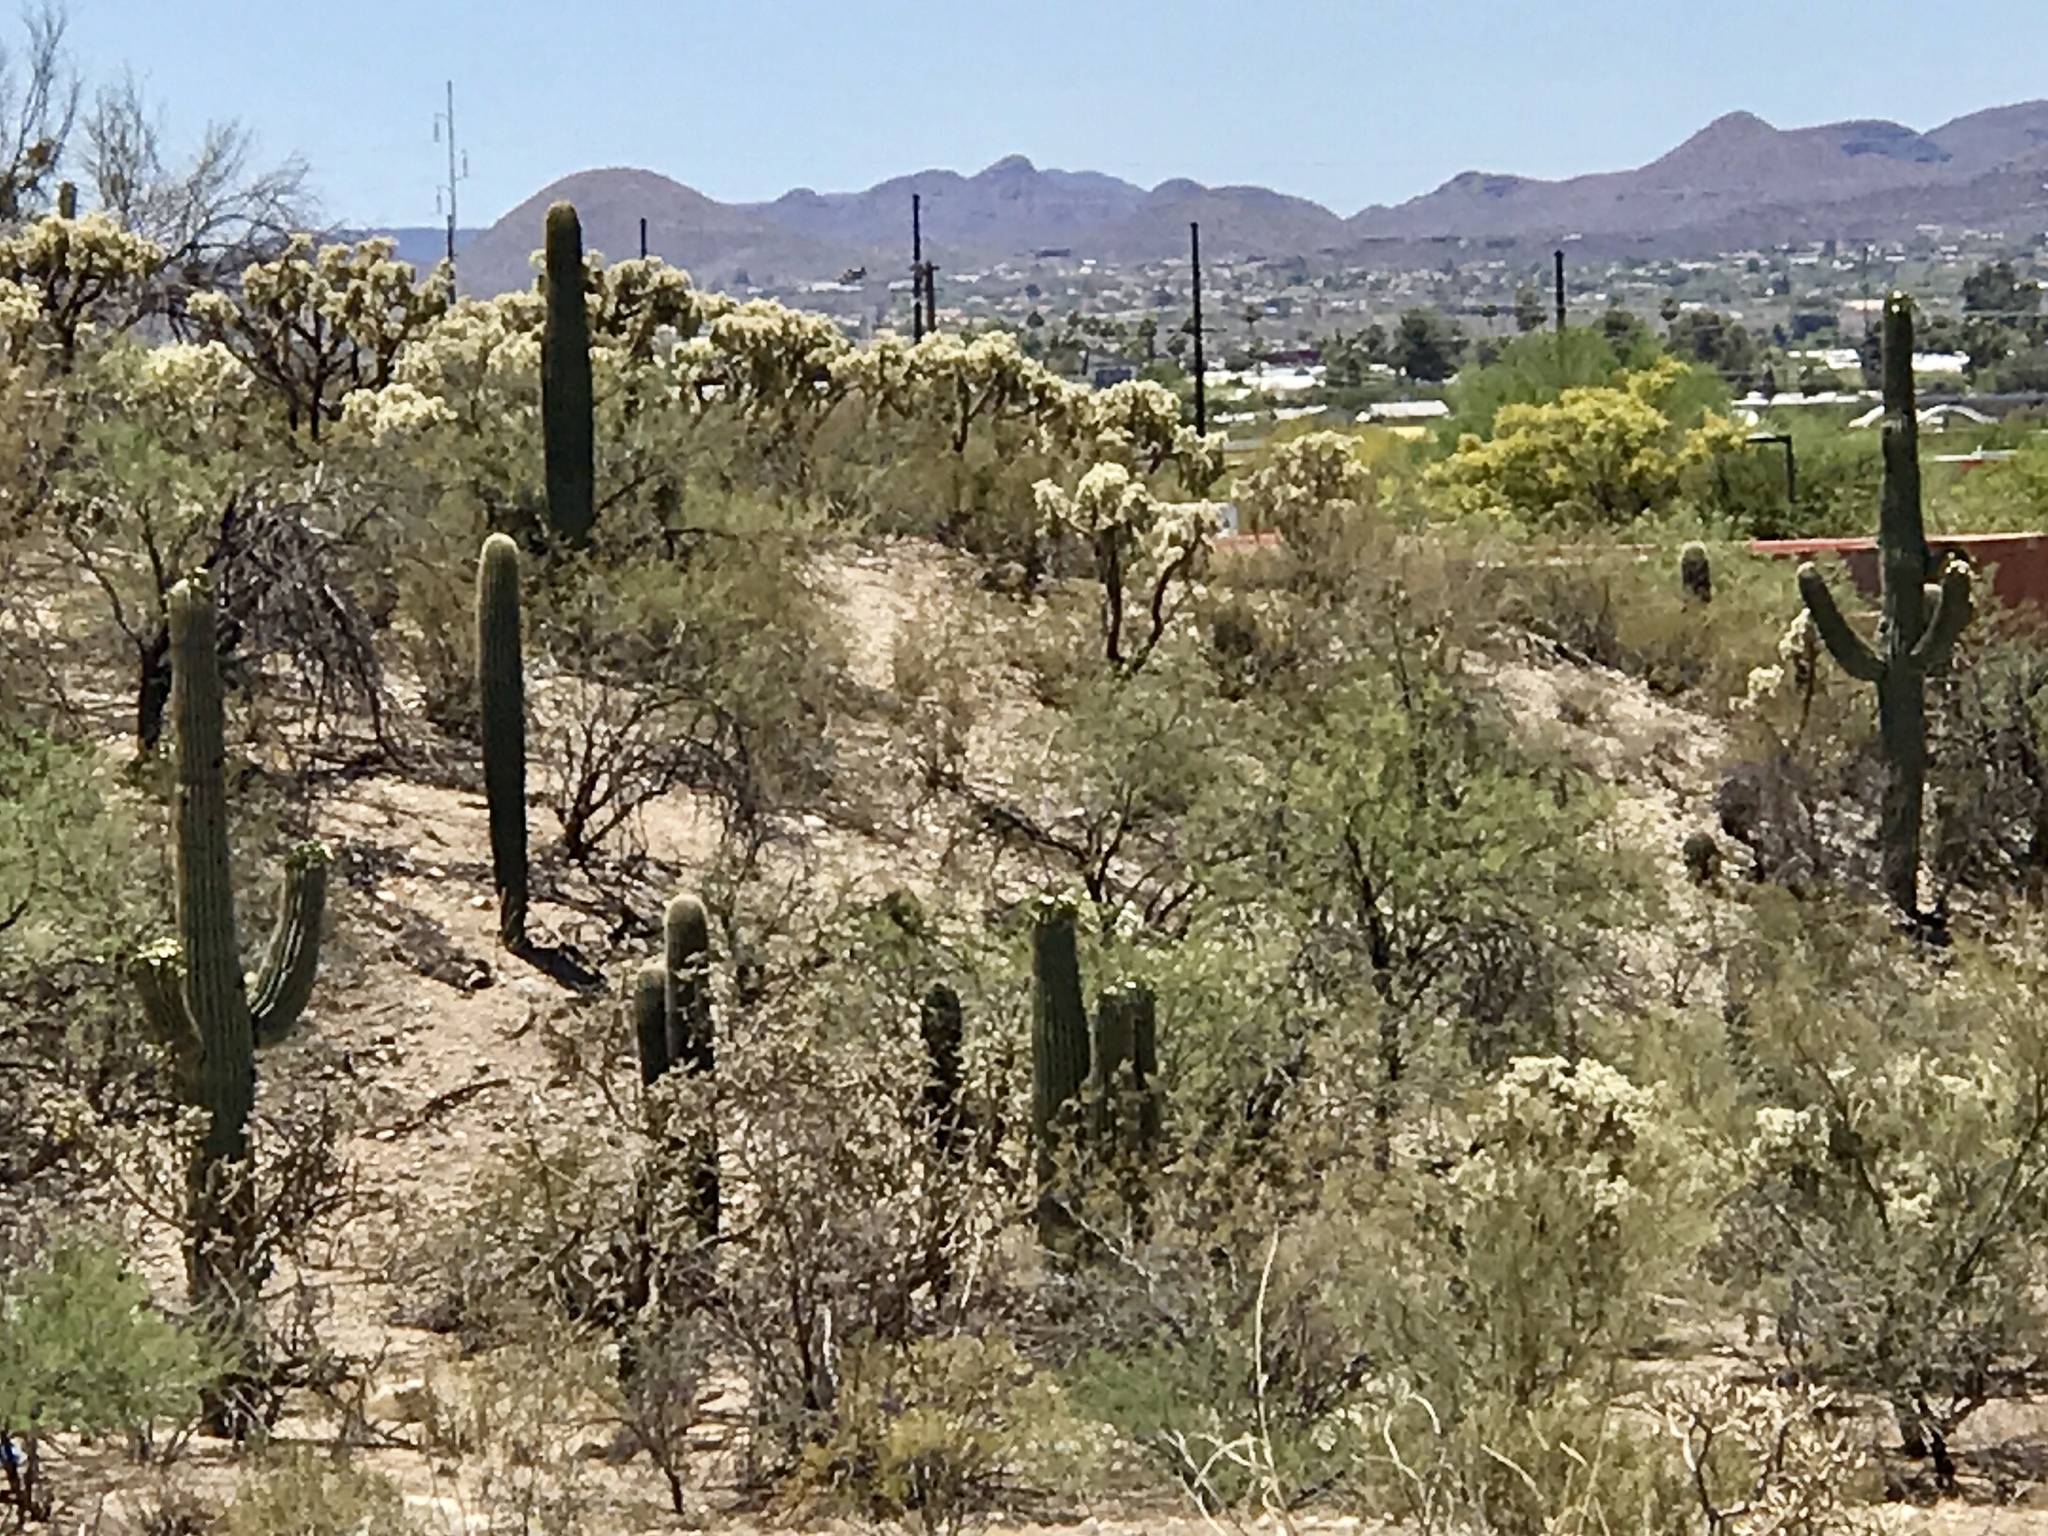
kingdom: Plantae
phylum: Tracheophyta
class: Magnoliopsida
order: Caryophyllales
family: Cactaceae
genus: Carnegiea
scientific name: Carnegiea gigantea
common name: Saguaro
